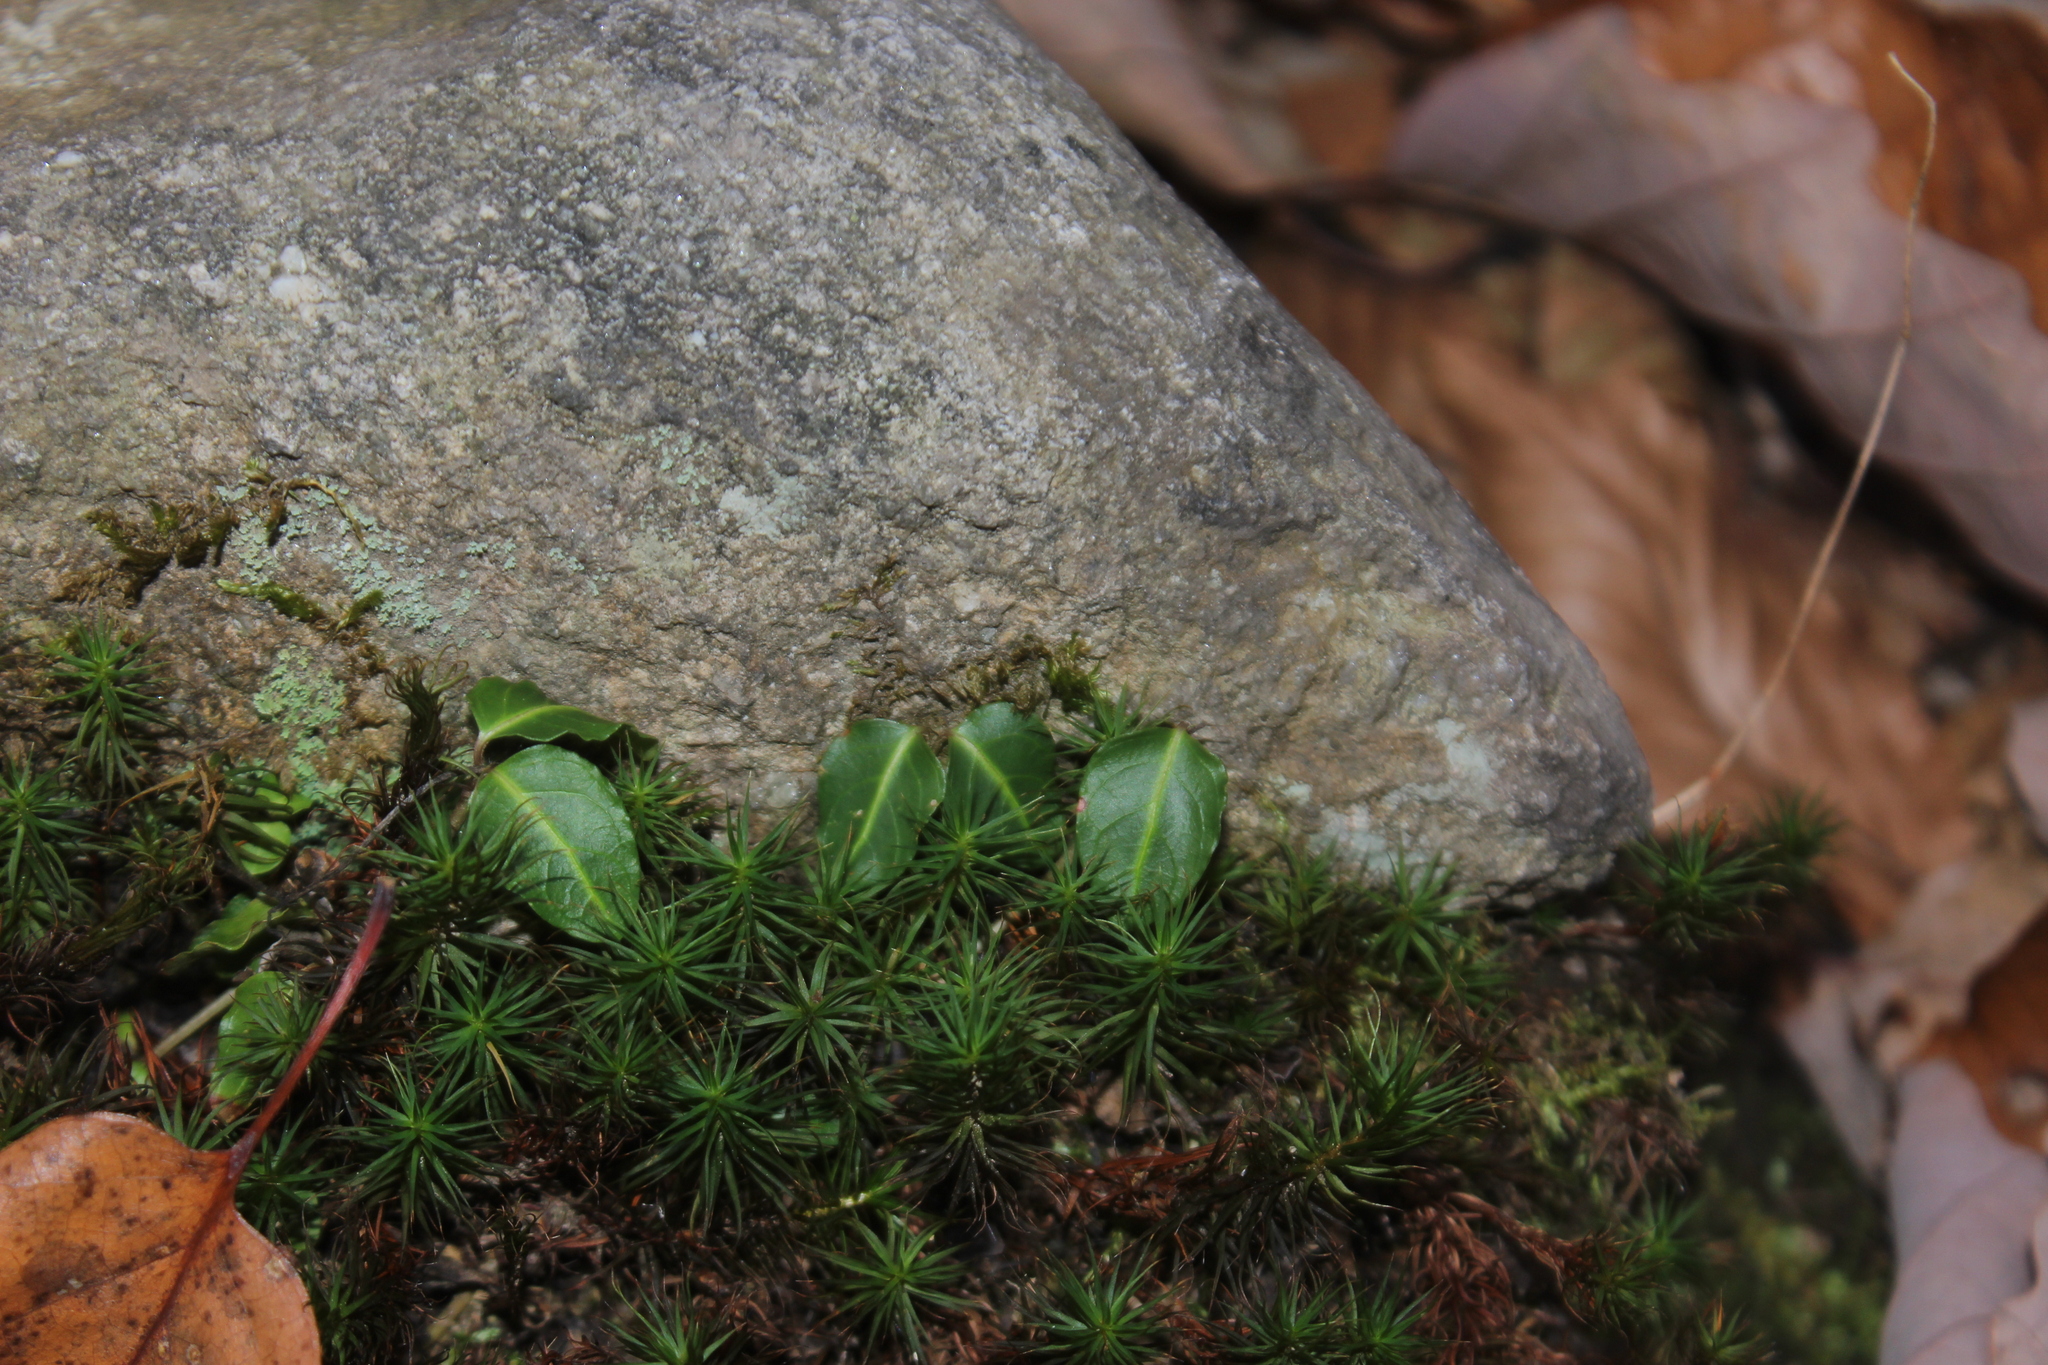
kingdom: Plantae
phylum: Tracheophyta
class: Magnoliopsida
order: Gentianales
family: Rubiaceae
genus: Mitchella
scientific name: Mitchella repens
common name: Partridge-berry
